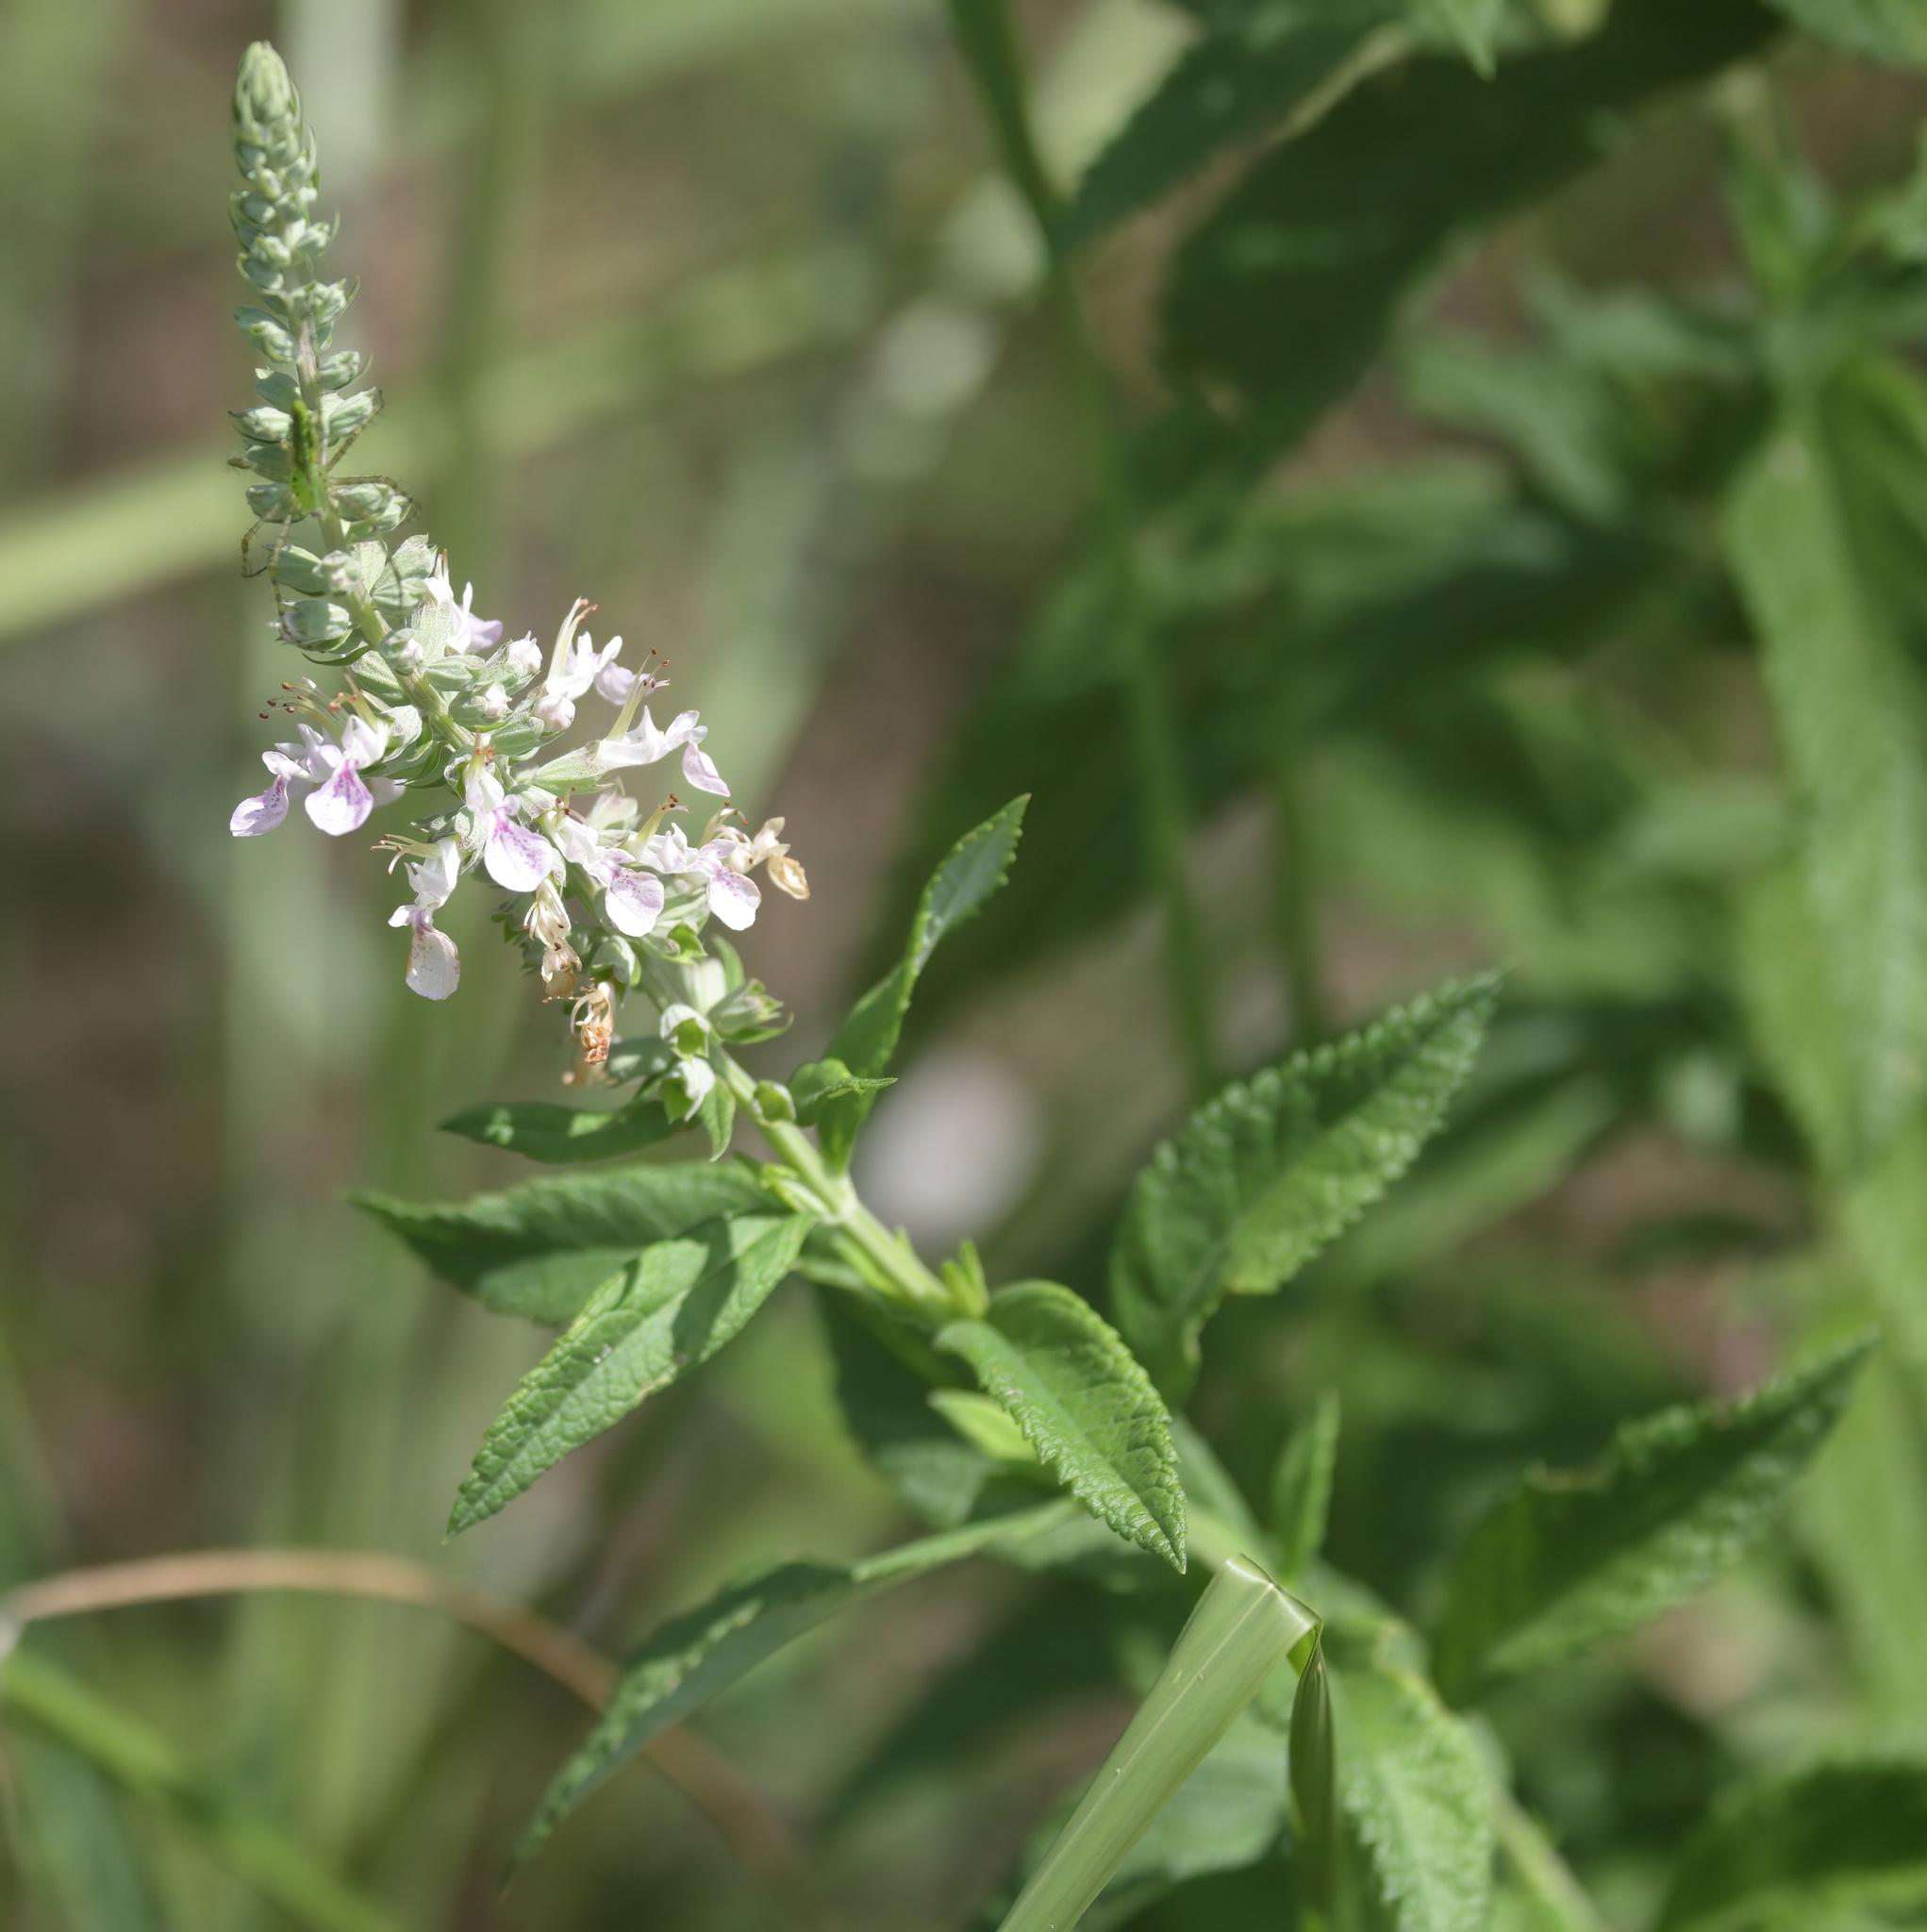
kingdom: Plantae
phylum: Tracheophyta
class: Magnoliopsida
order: Lamiales
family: Lamiaceae
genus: Teucrium
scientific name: Teucrium canadense
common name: American germander
